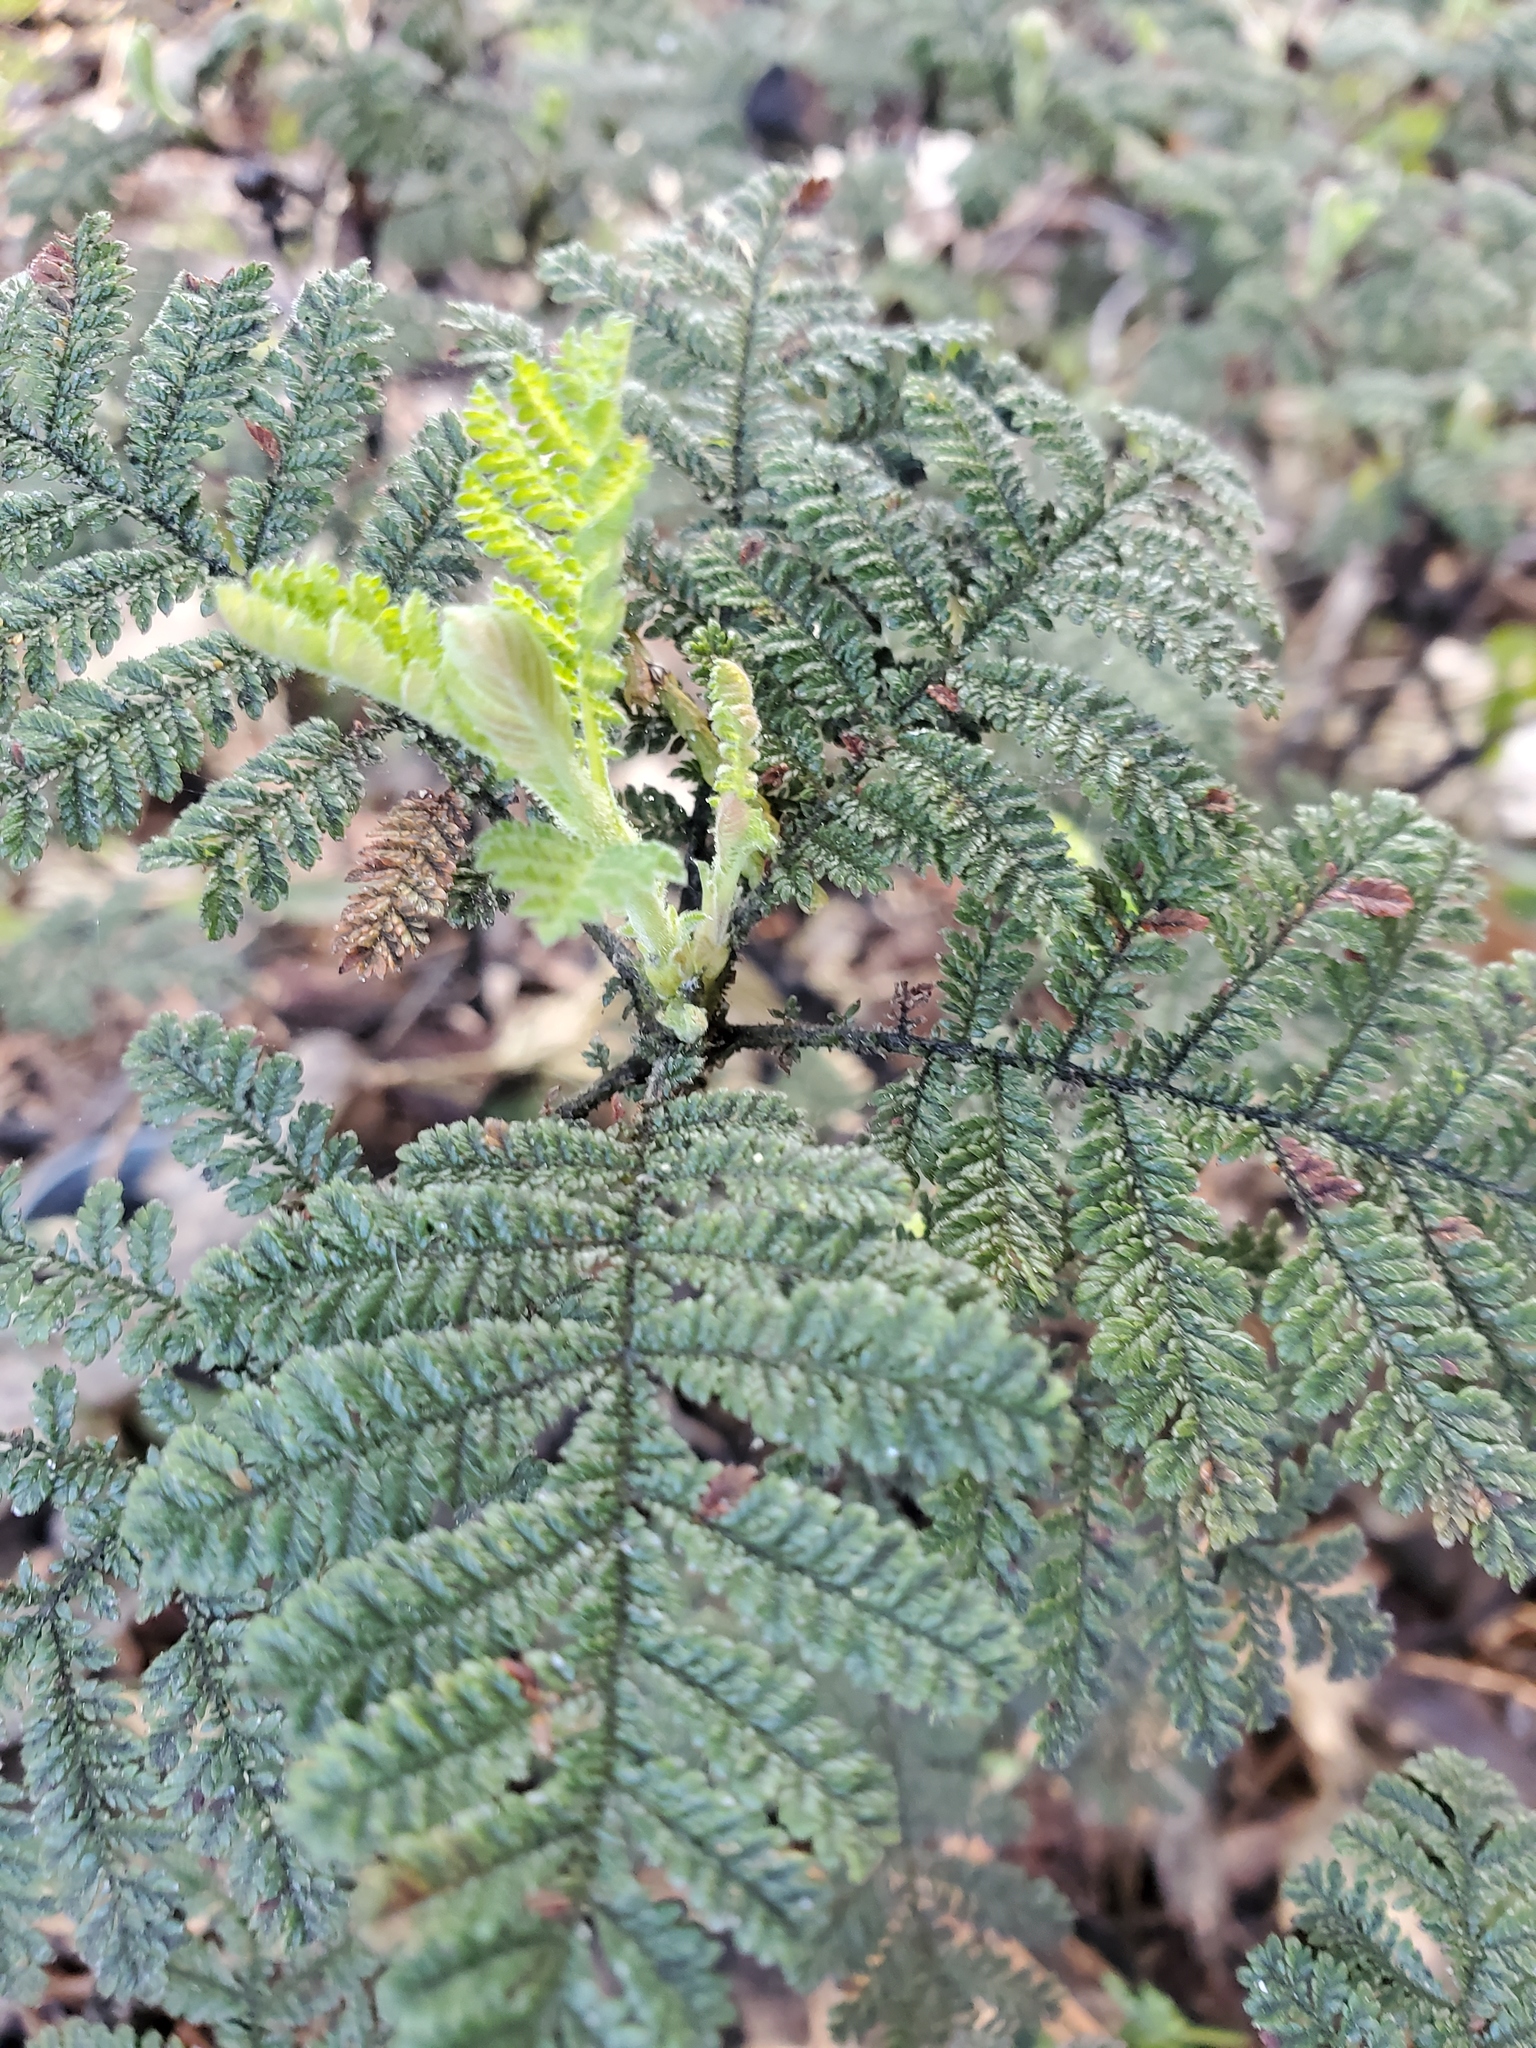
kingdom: Plantae
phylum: Tracheophyta
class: Magnoliopsida
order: Rosales
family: Rosaceae
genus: Chamaebatia
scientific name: Chamaebatia foliolosa
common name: Mountain misery
